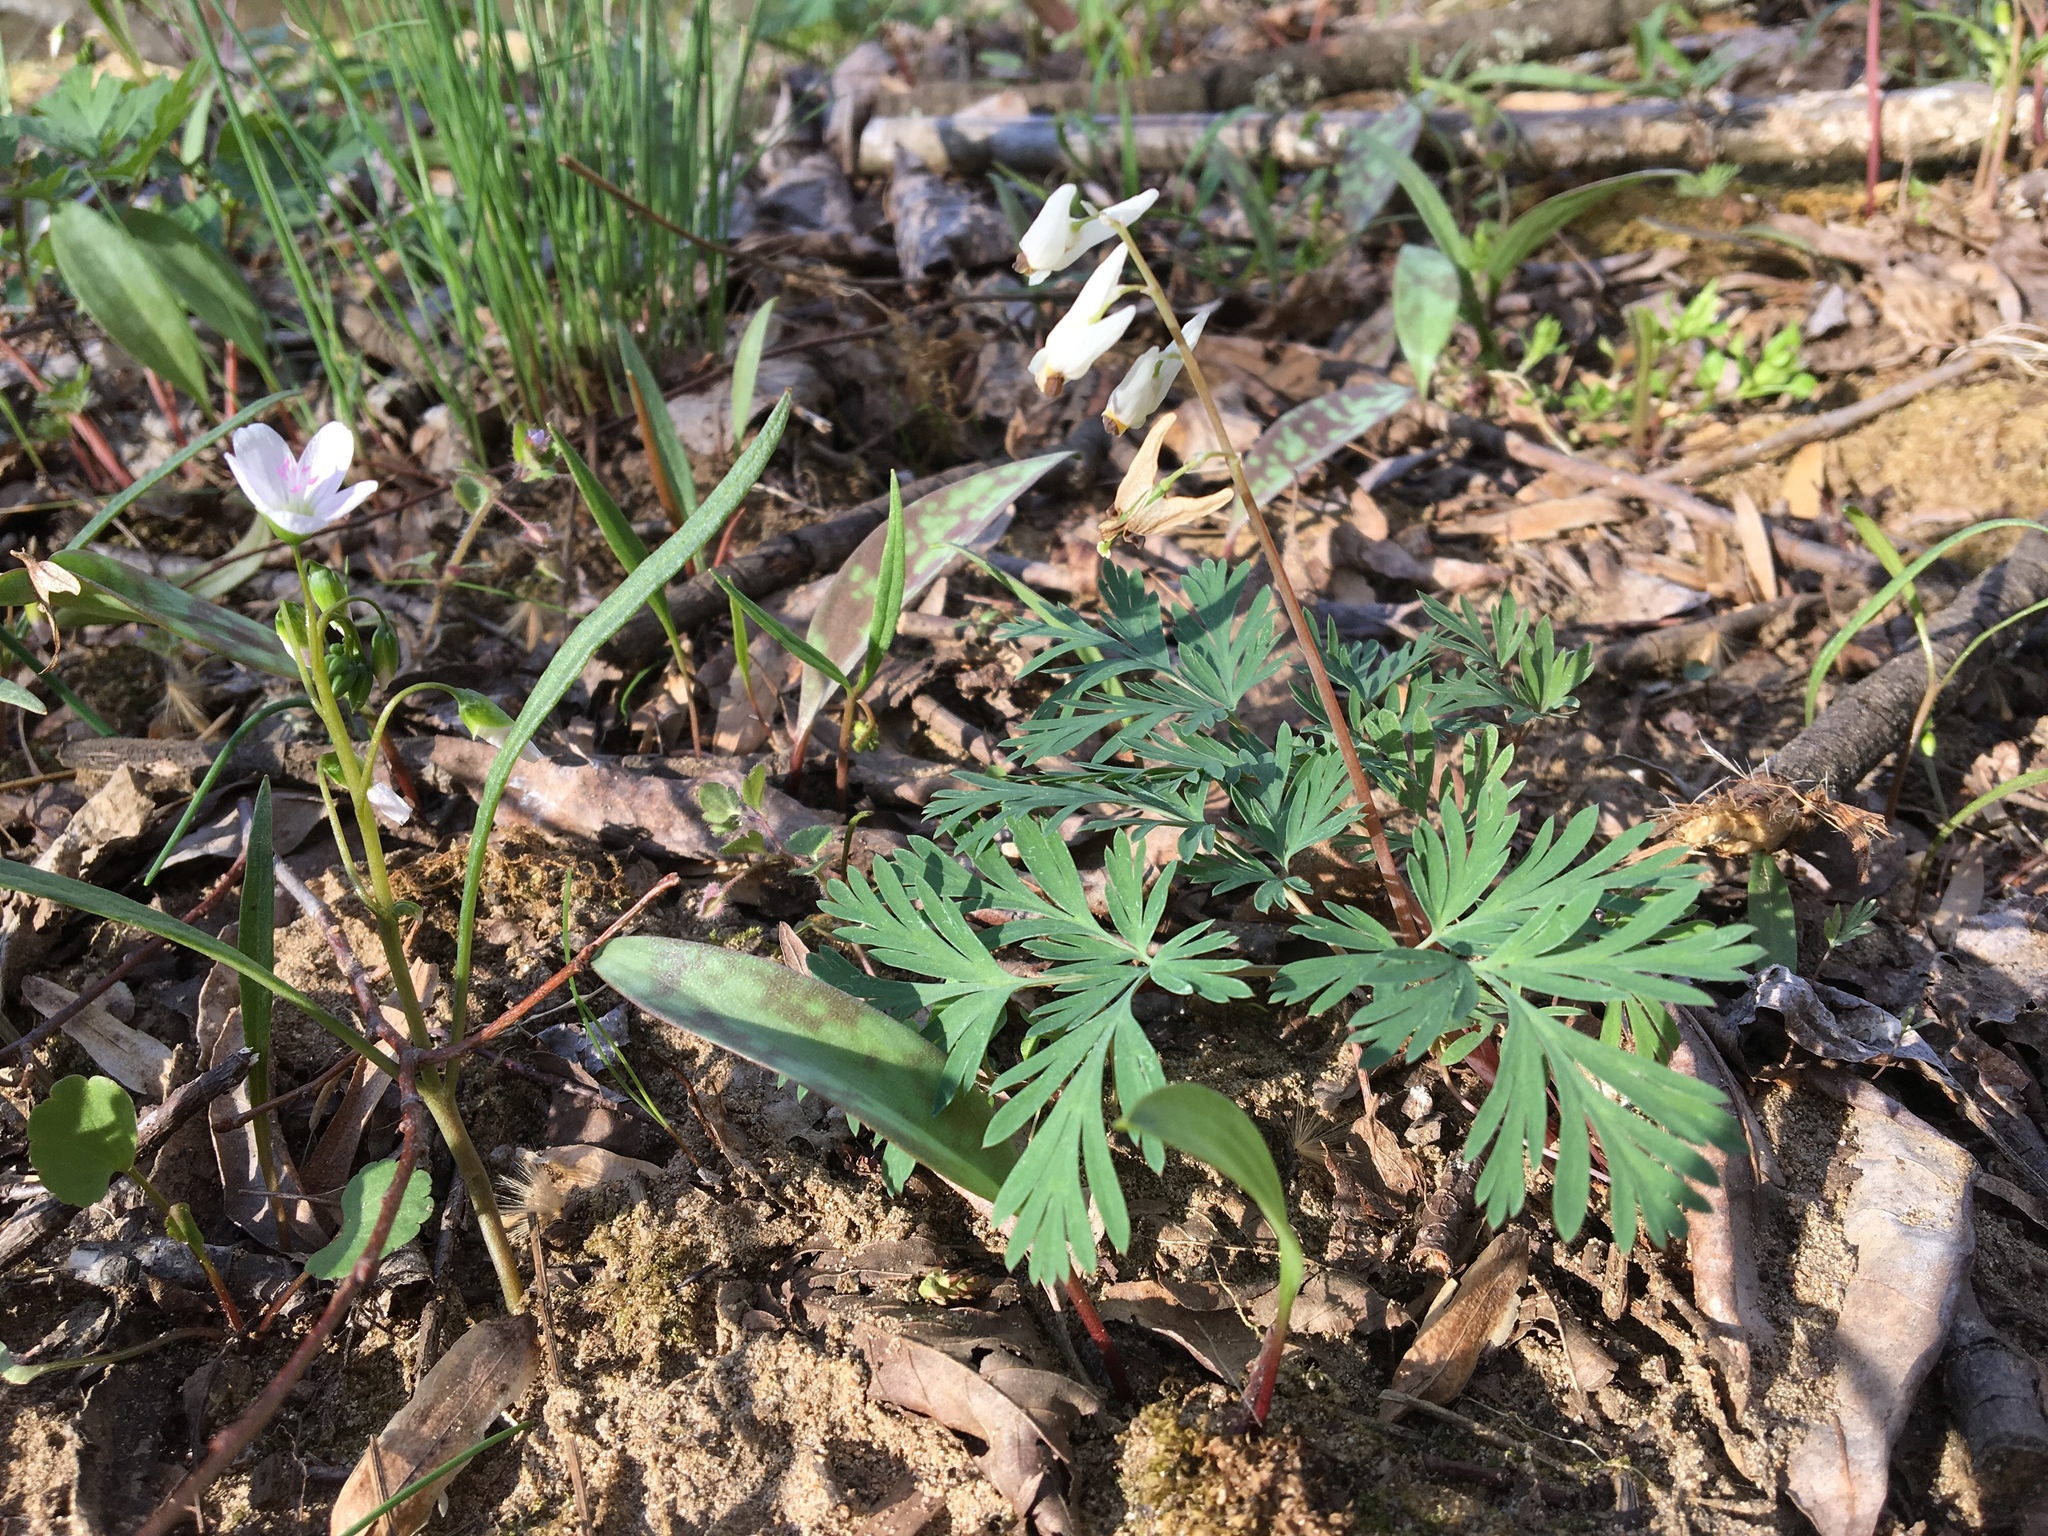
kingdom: Plantae
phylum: Tracheophyta
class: Magnoliopsida
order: Ranunculales
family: Papaveraceae
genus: Dicentra
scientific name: Dicentra cucullaria
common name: Dutchman's breeches
